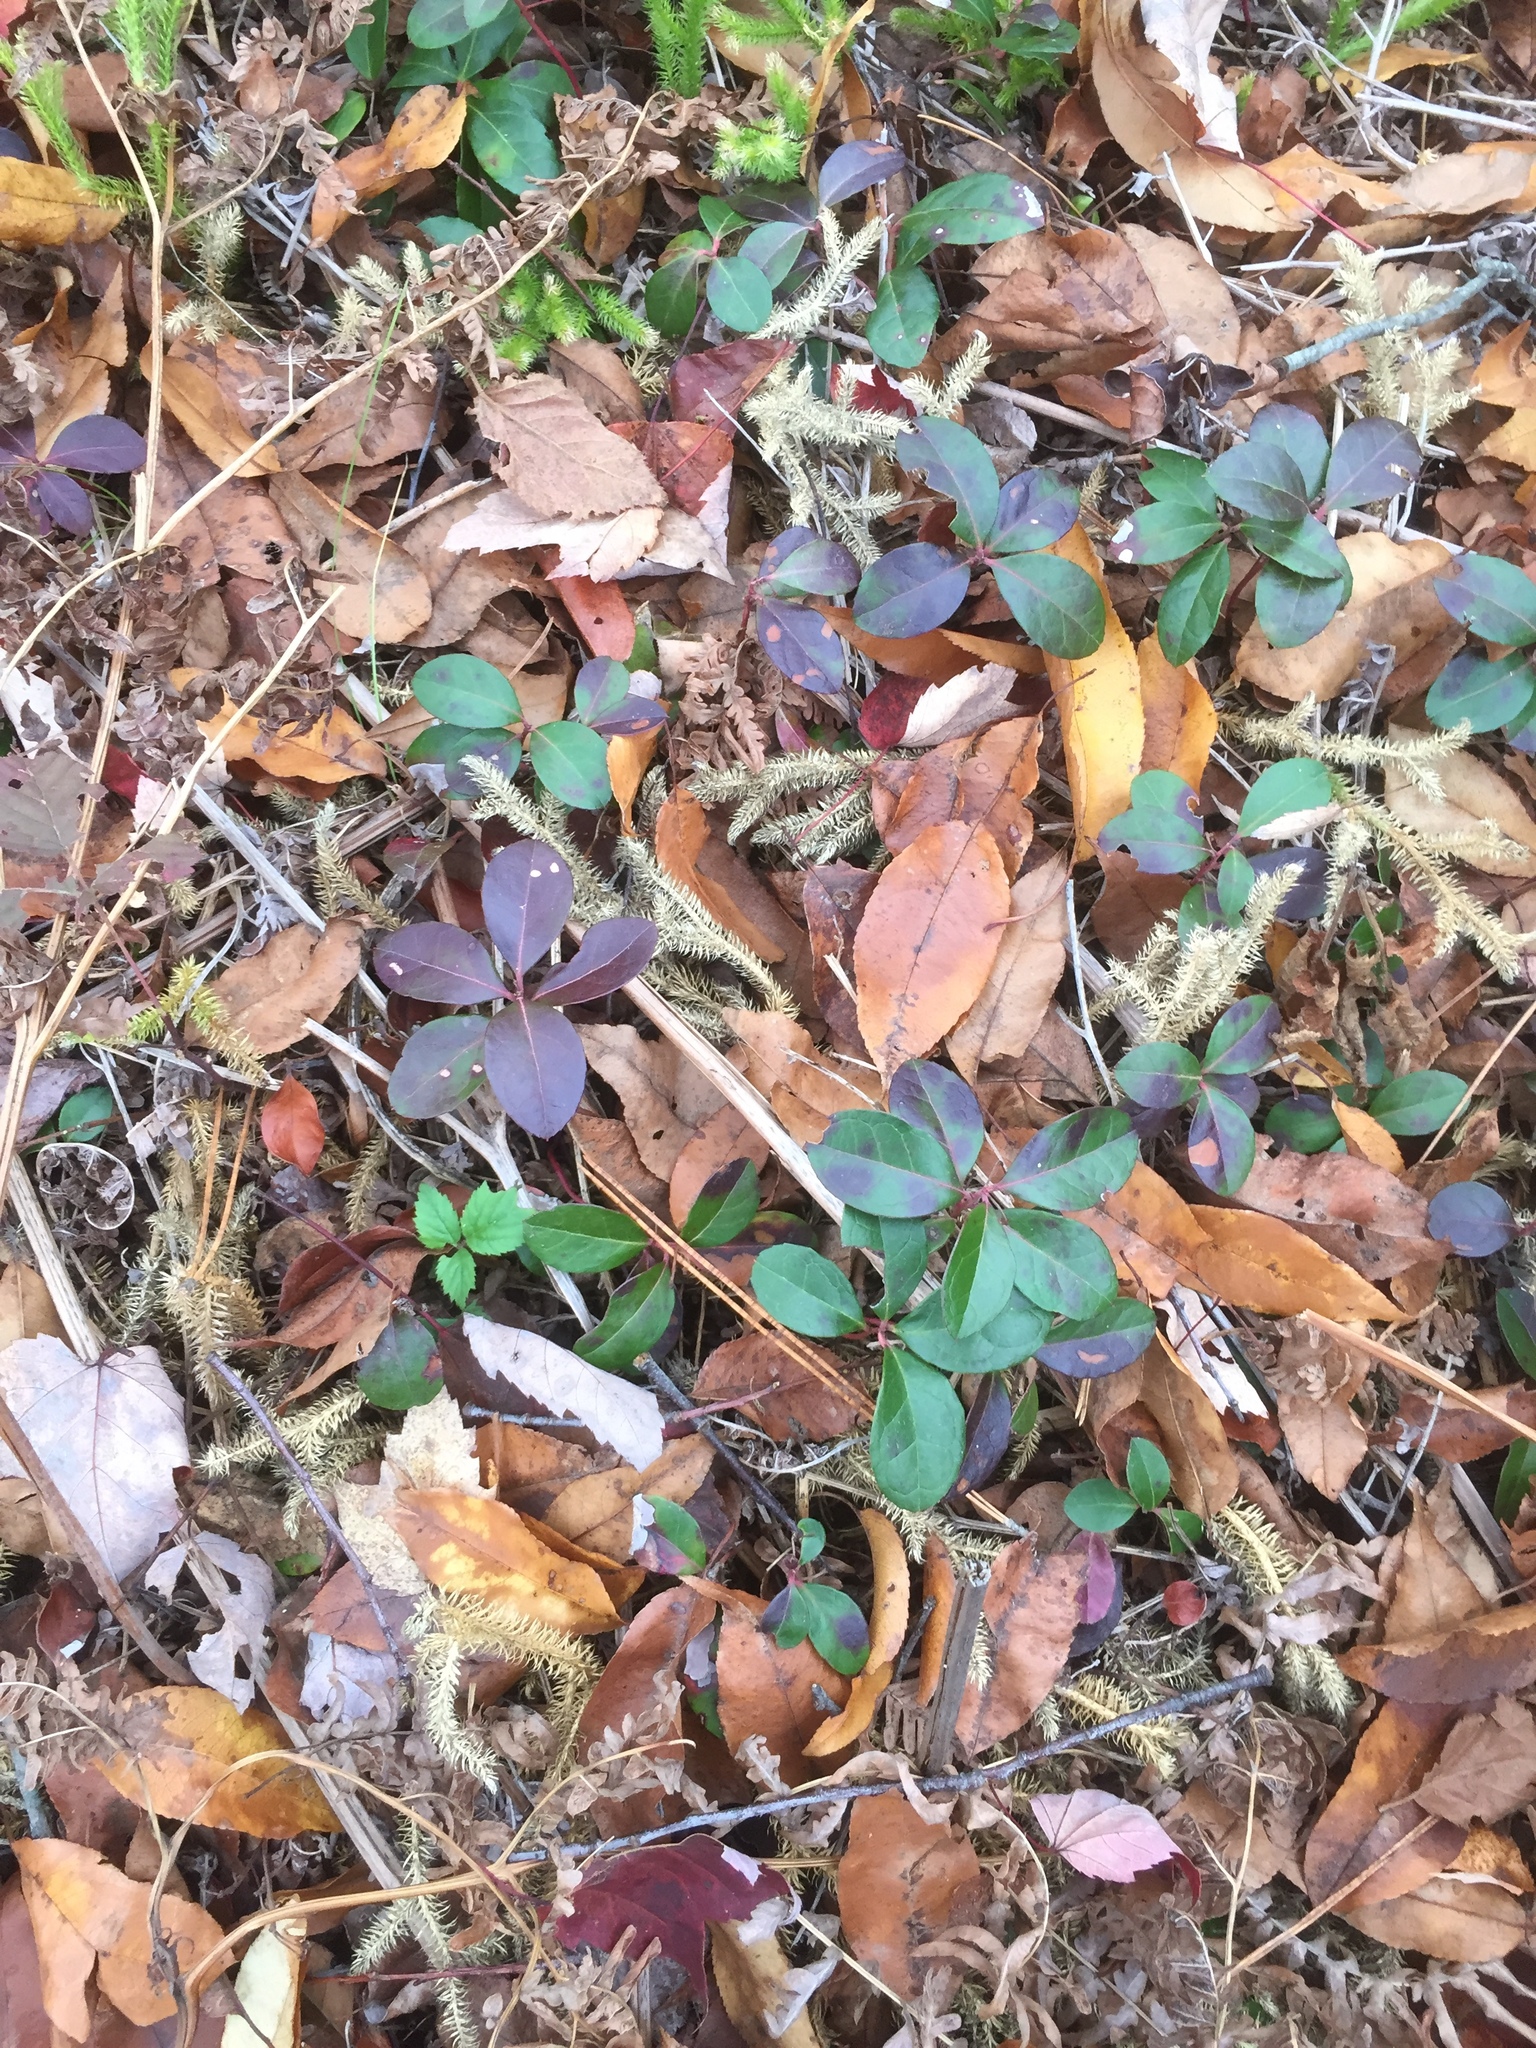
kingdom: Plantae
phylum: Tracheophyta
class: Magnoliopsida
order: Ericales
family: Ericaceae
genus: Gaultheria
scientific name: Gaultheria procumbens
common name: Checkerberry
